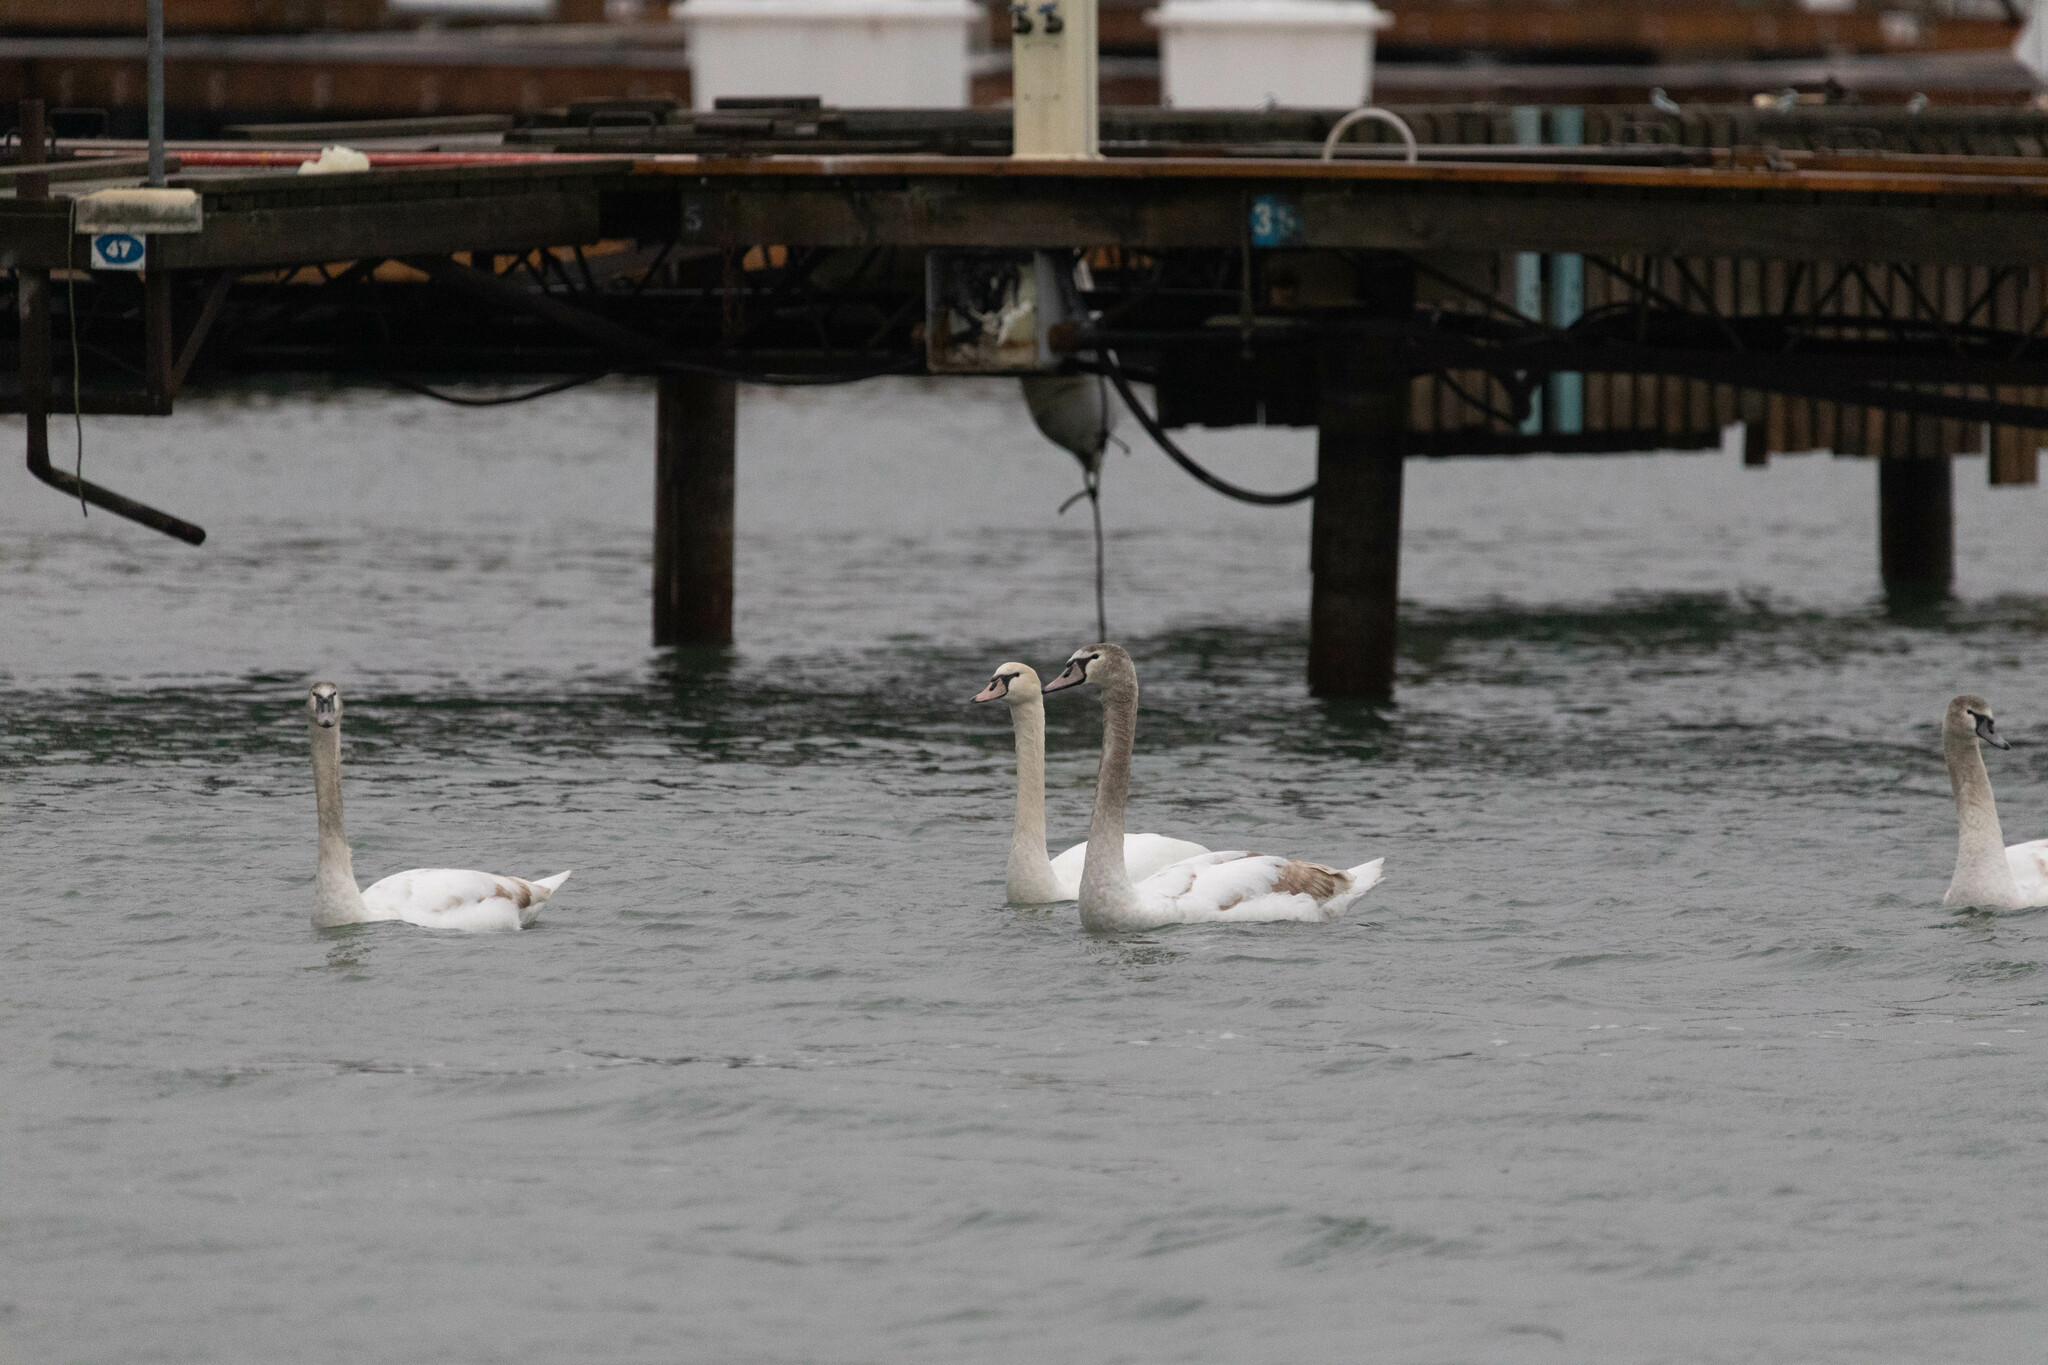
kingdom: Animalia
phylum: Chordata
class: Aves
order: Anseriformes
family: Anatidae
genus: Cygnus
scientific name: Cygnus olor
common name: Mute swan
